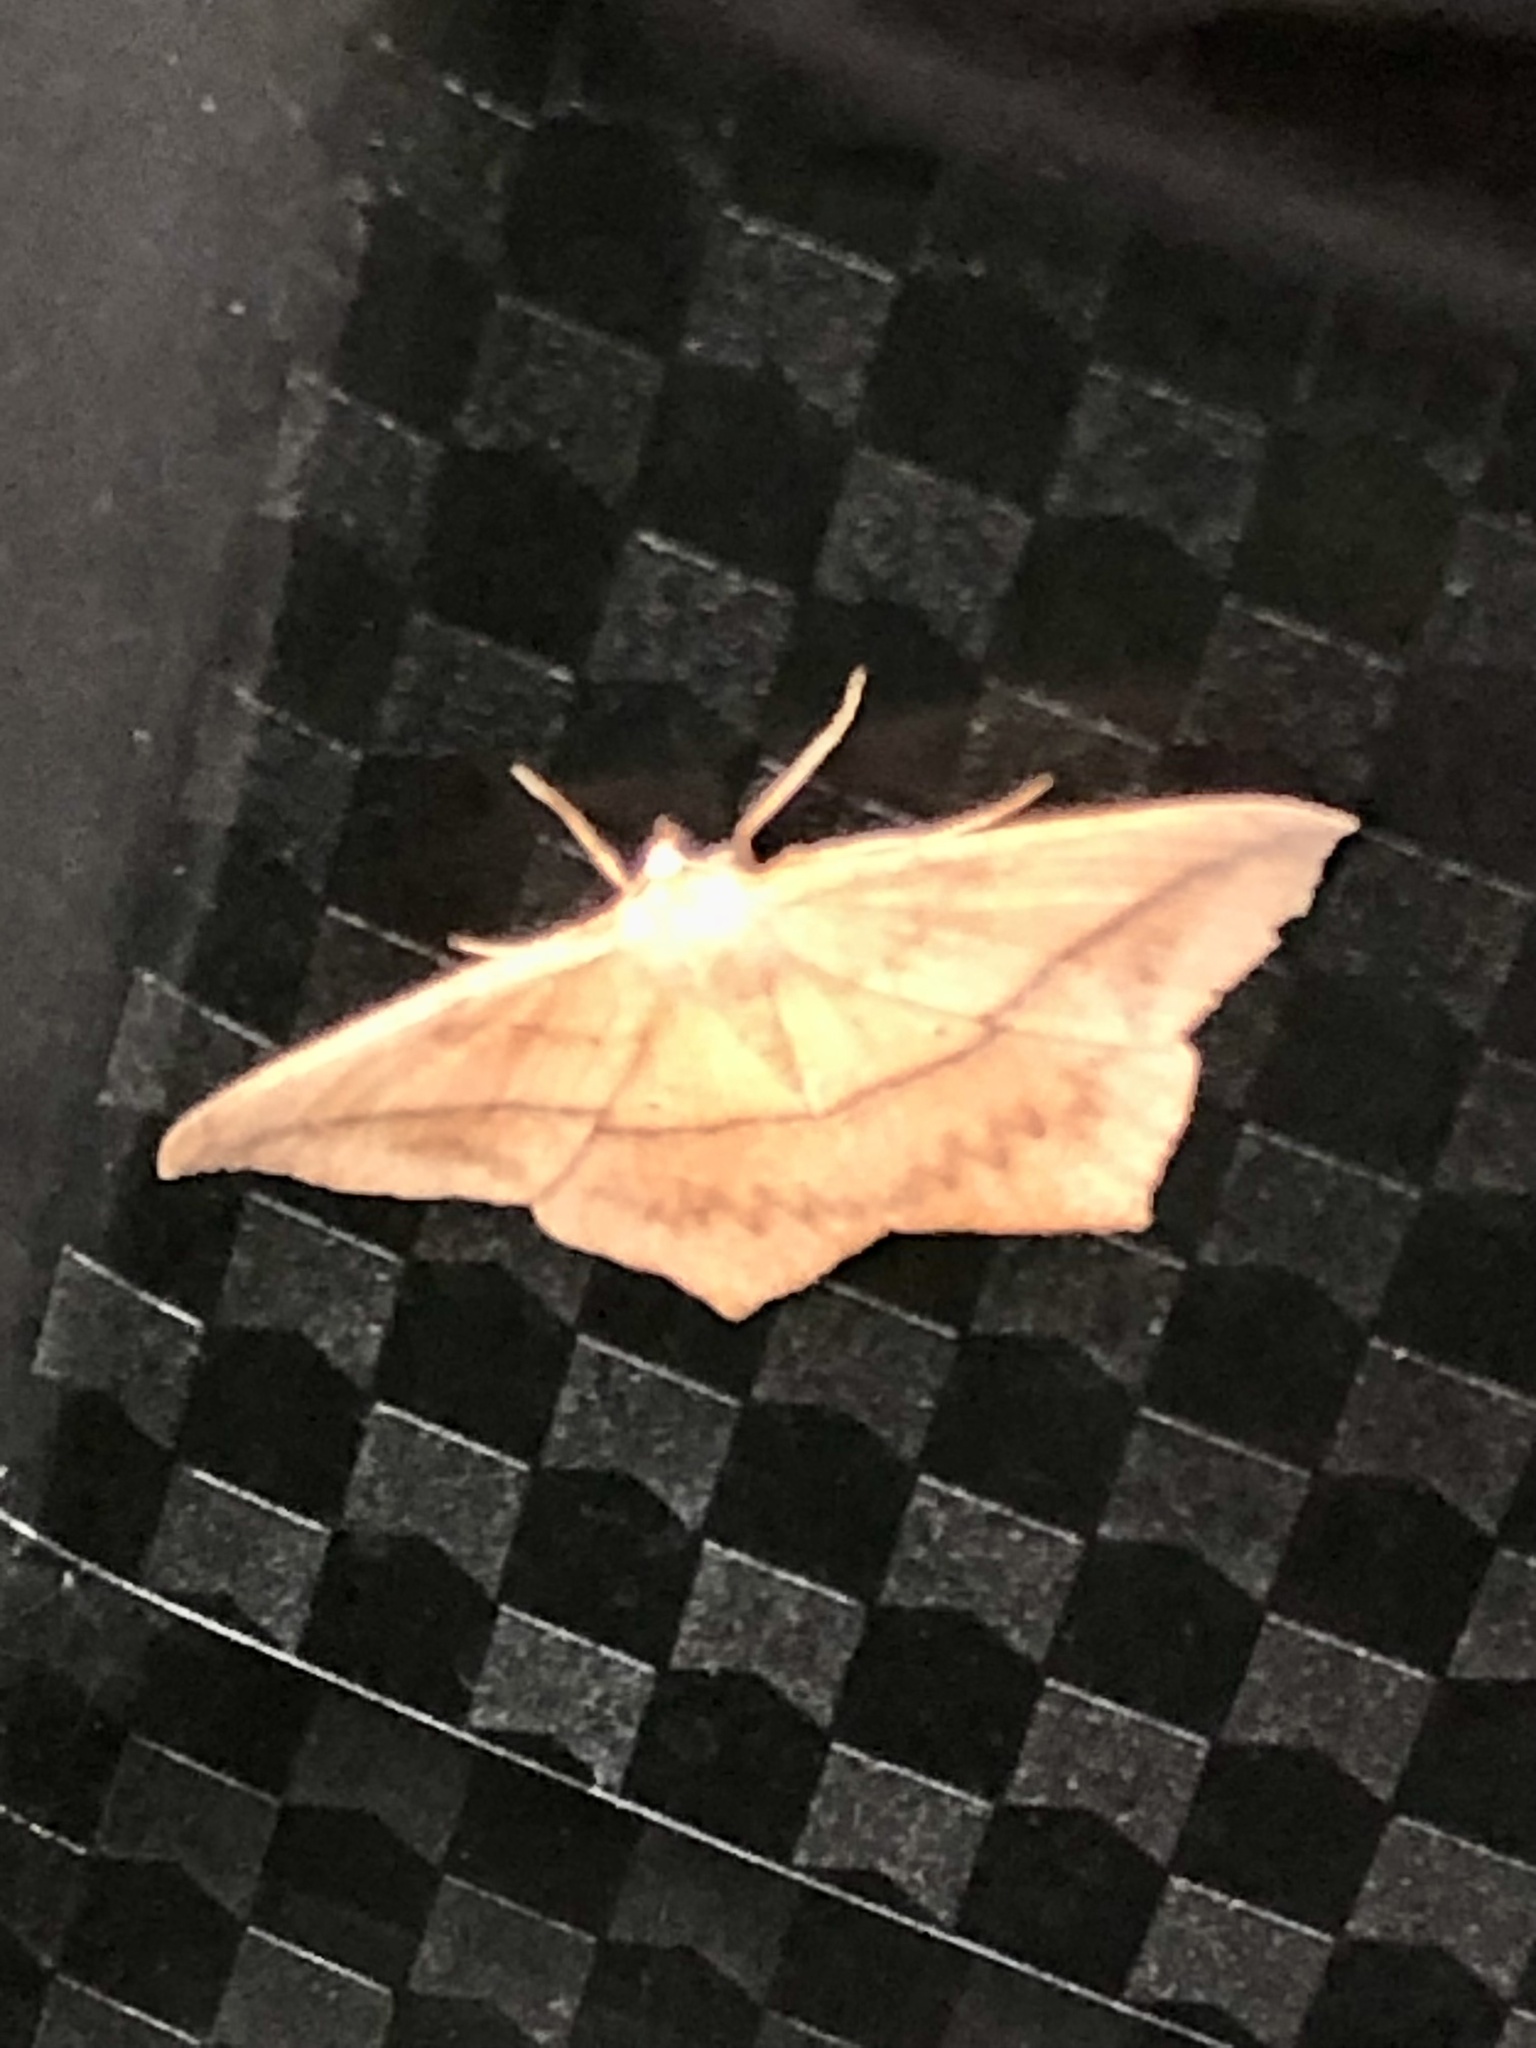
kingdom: Animalia
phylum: Arthropoda
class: Insecta
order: Lepidoptera
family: Geometridae
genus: Prochoerodes
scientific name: Prochoerodes lineola
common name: Large maple spanworm
